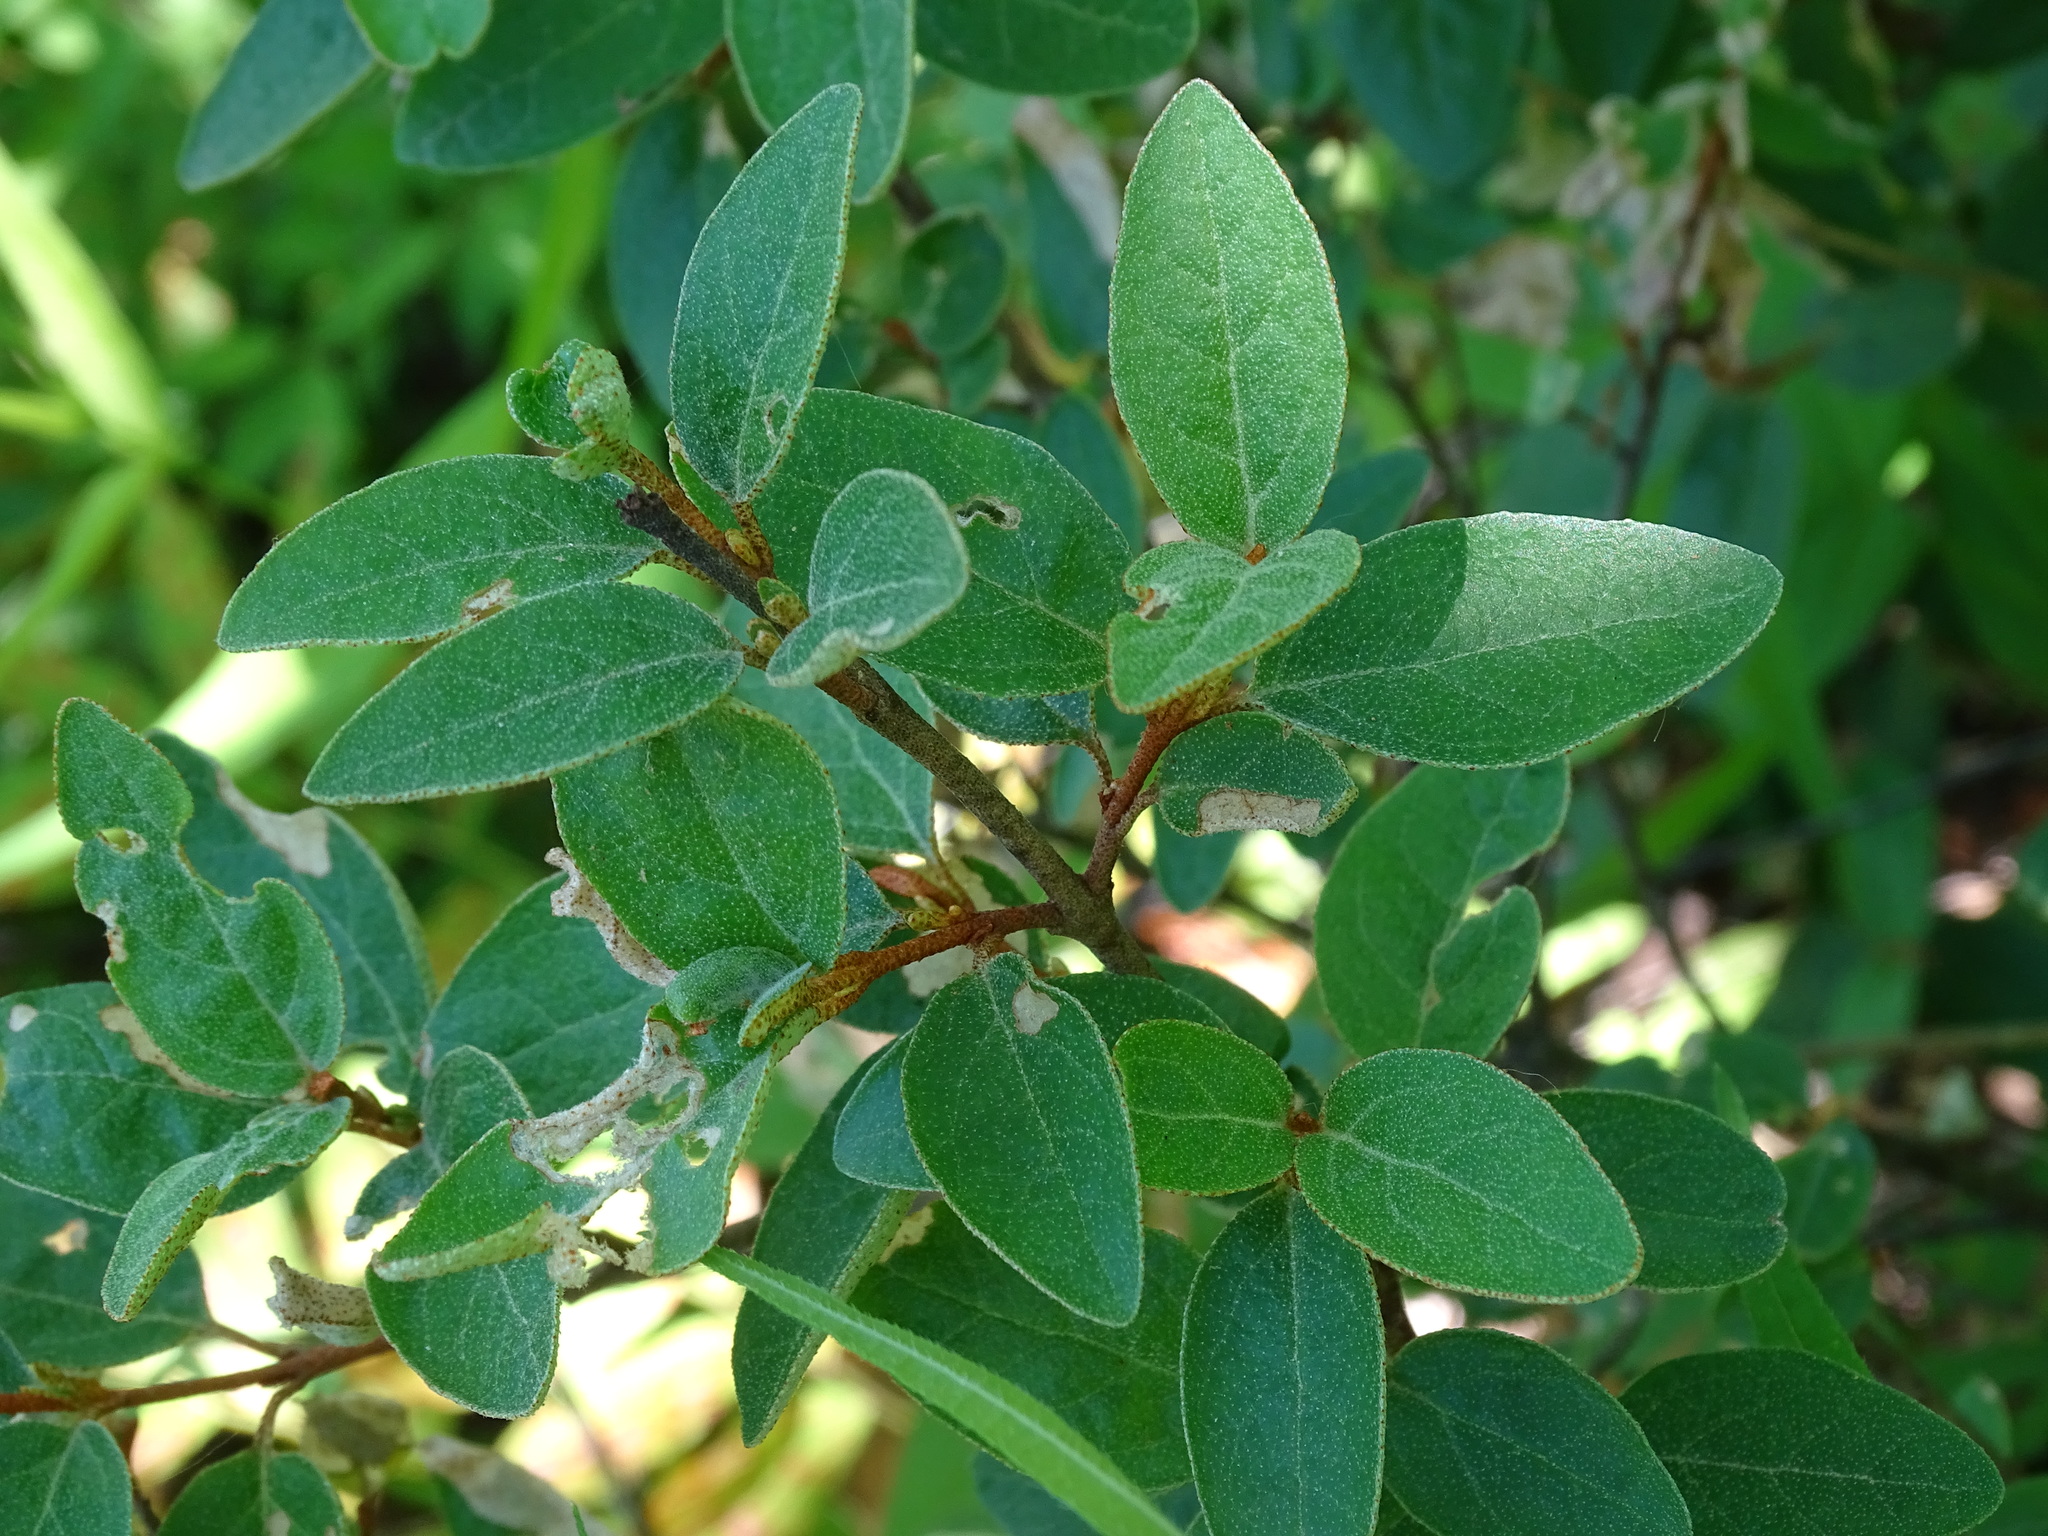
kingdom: Plantae
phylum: Tracheophyta
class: Magnoliopsida
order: Rosales
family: Elaeagnaceae
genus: Shepherdia
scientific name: Shepherdia canadensis
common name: Soapberry
